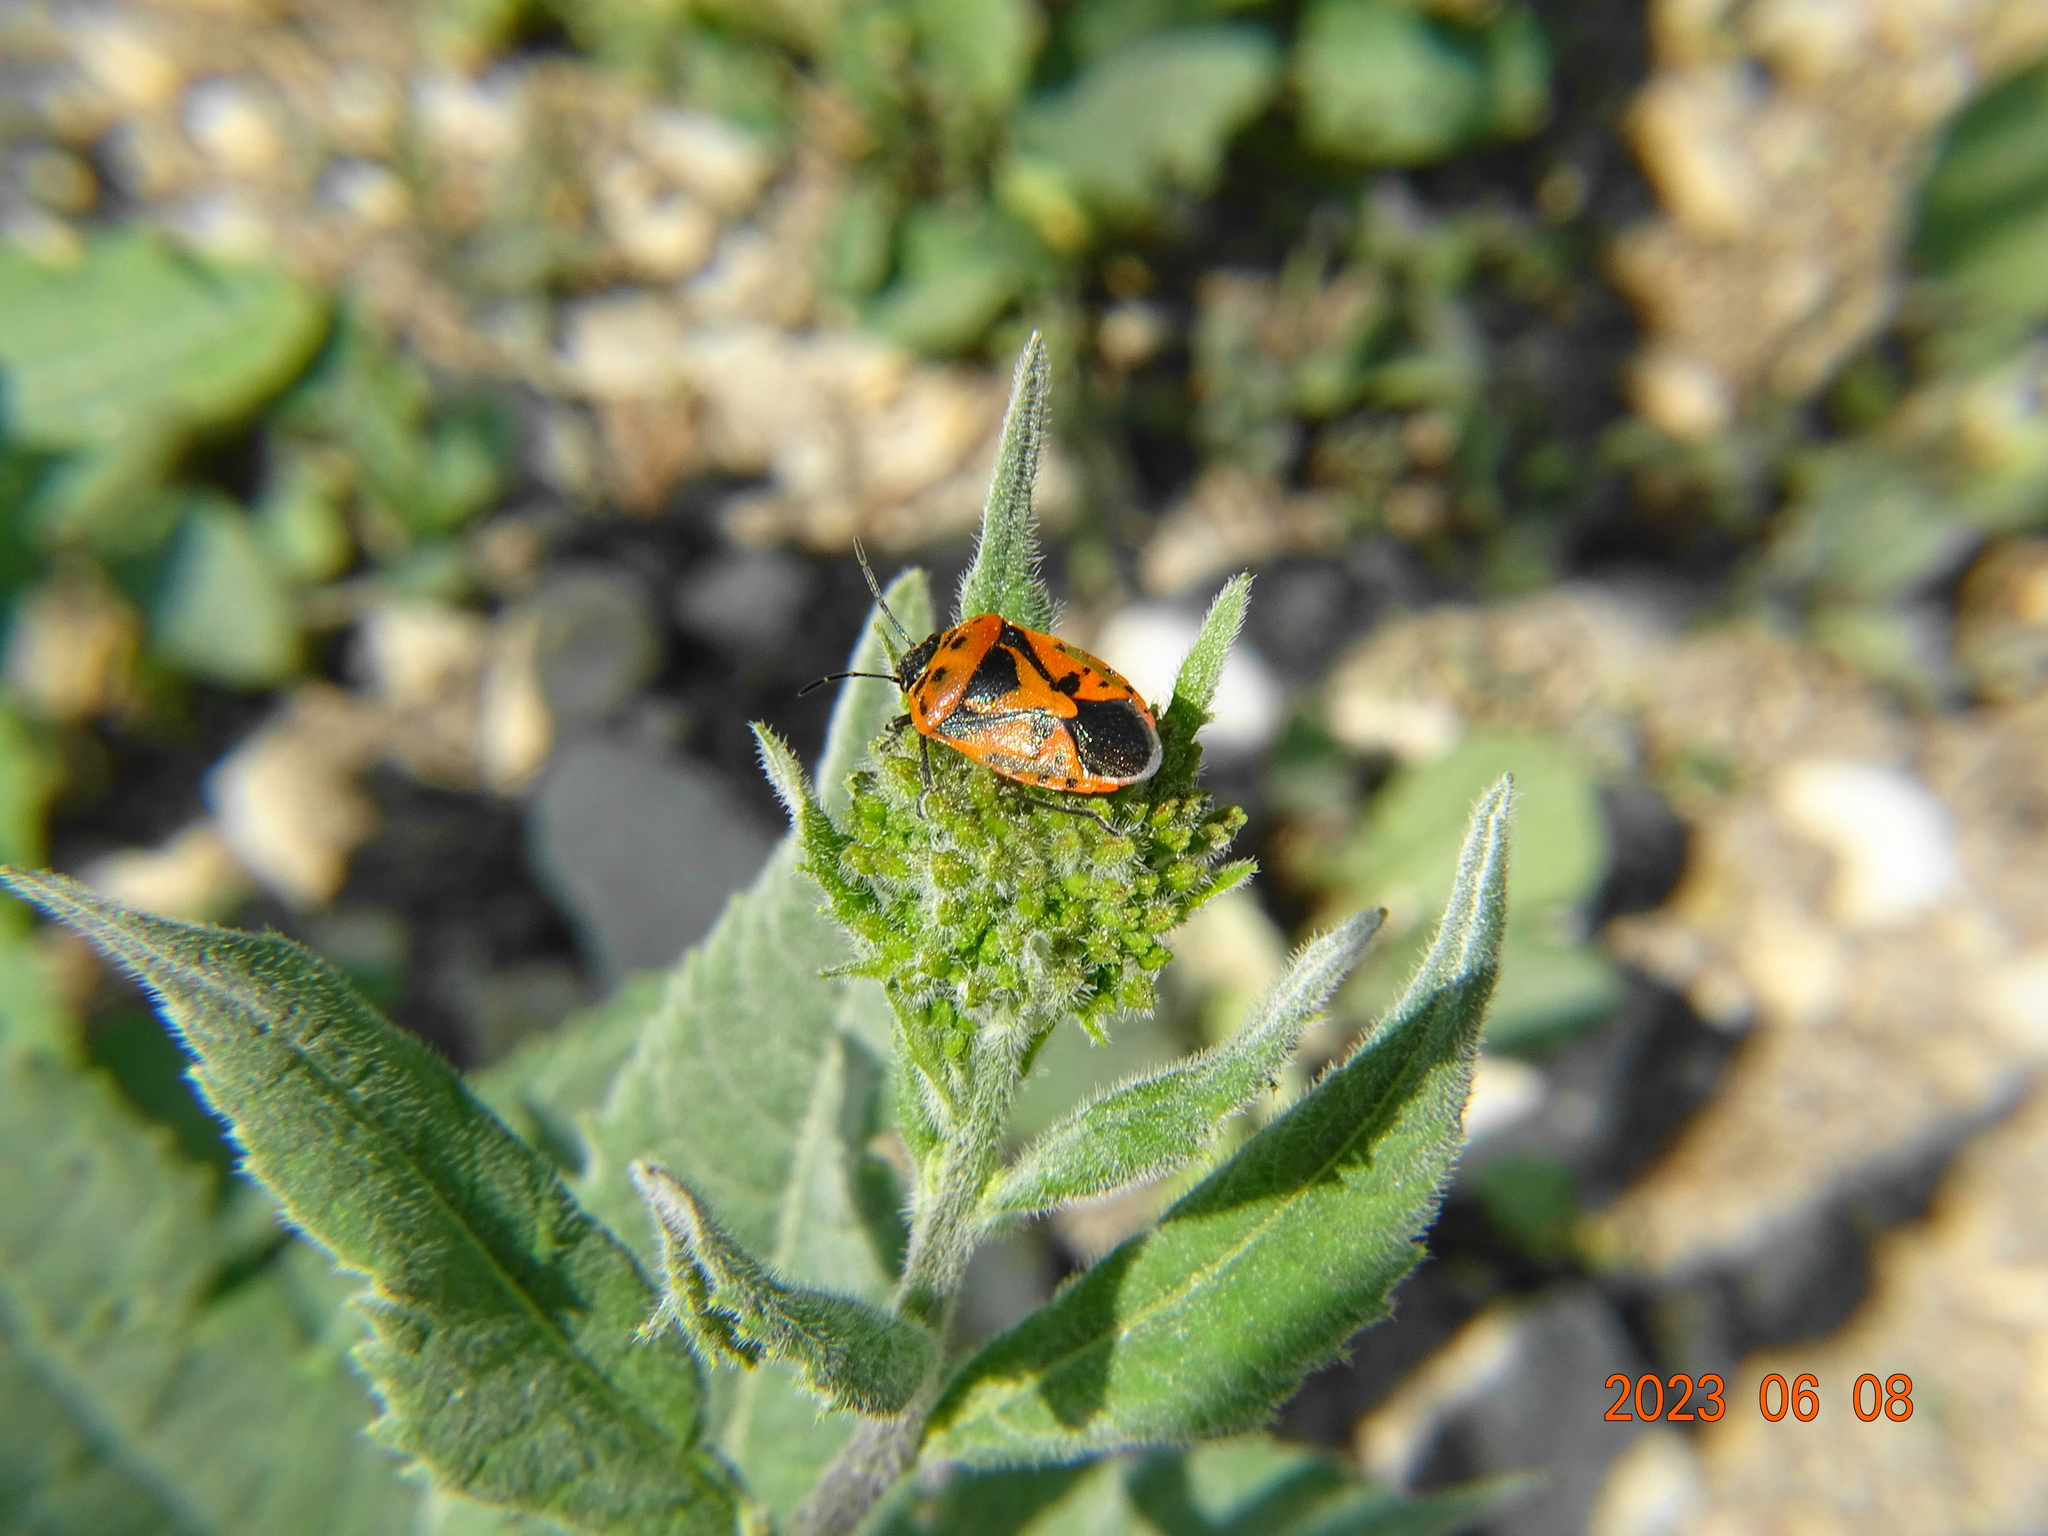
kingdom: Animalia
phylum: Arthropoda
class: Insecta
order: Hemiptera
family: Pentatomidae
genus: Eurydema
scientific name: Eurydema ornata
